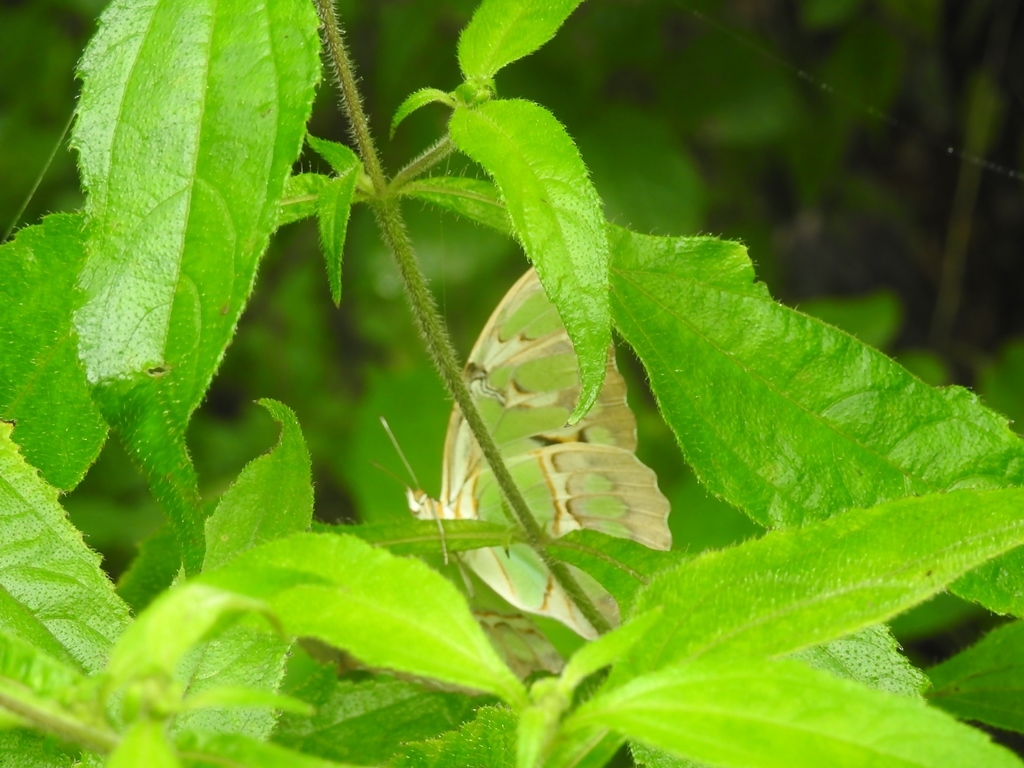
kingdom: Animalia
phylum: Arthropoda
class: Insecta
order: Lepidoptera
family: Nymphalidae
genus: Siproeta
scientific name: Siproeta stelenes
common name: Malachite
